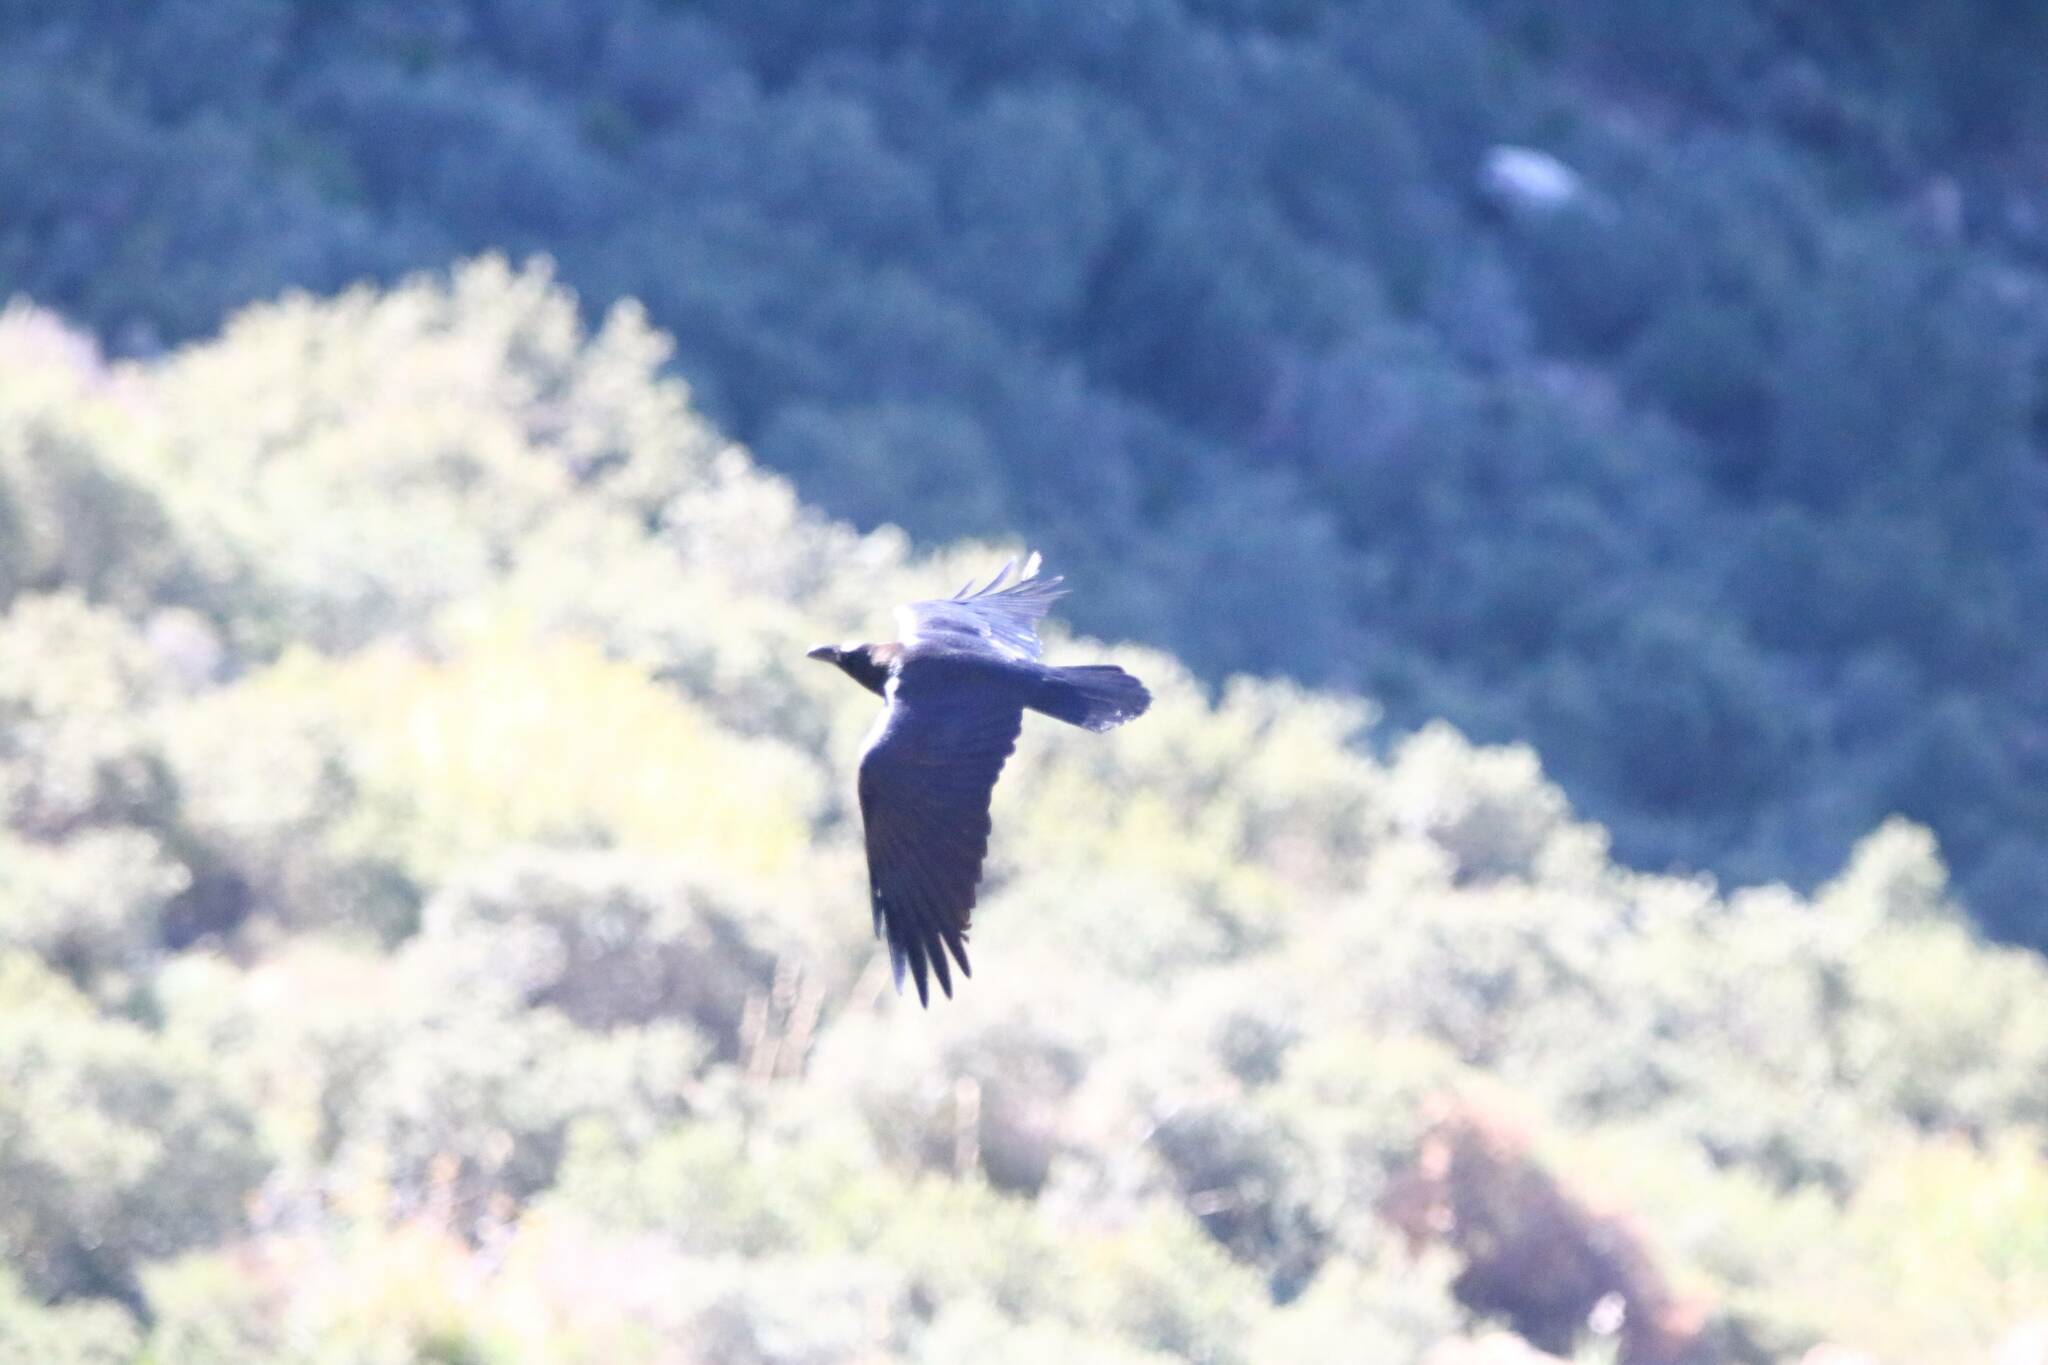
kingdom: Animalia
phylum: Chordata
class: Aves
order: Passeriformes
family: Corvidae
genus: Corvus
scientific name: Corvus corax
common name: Common raven
